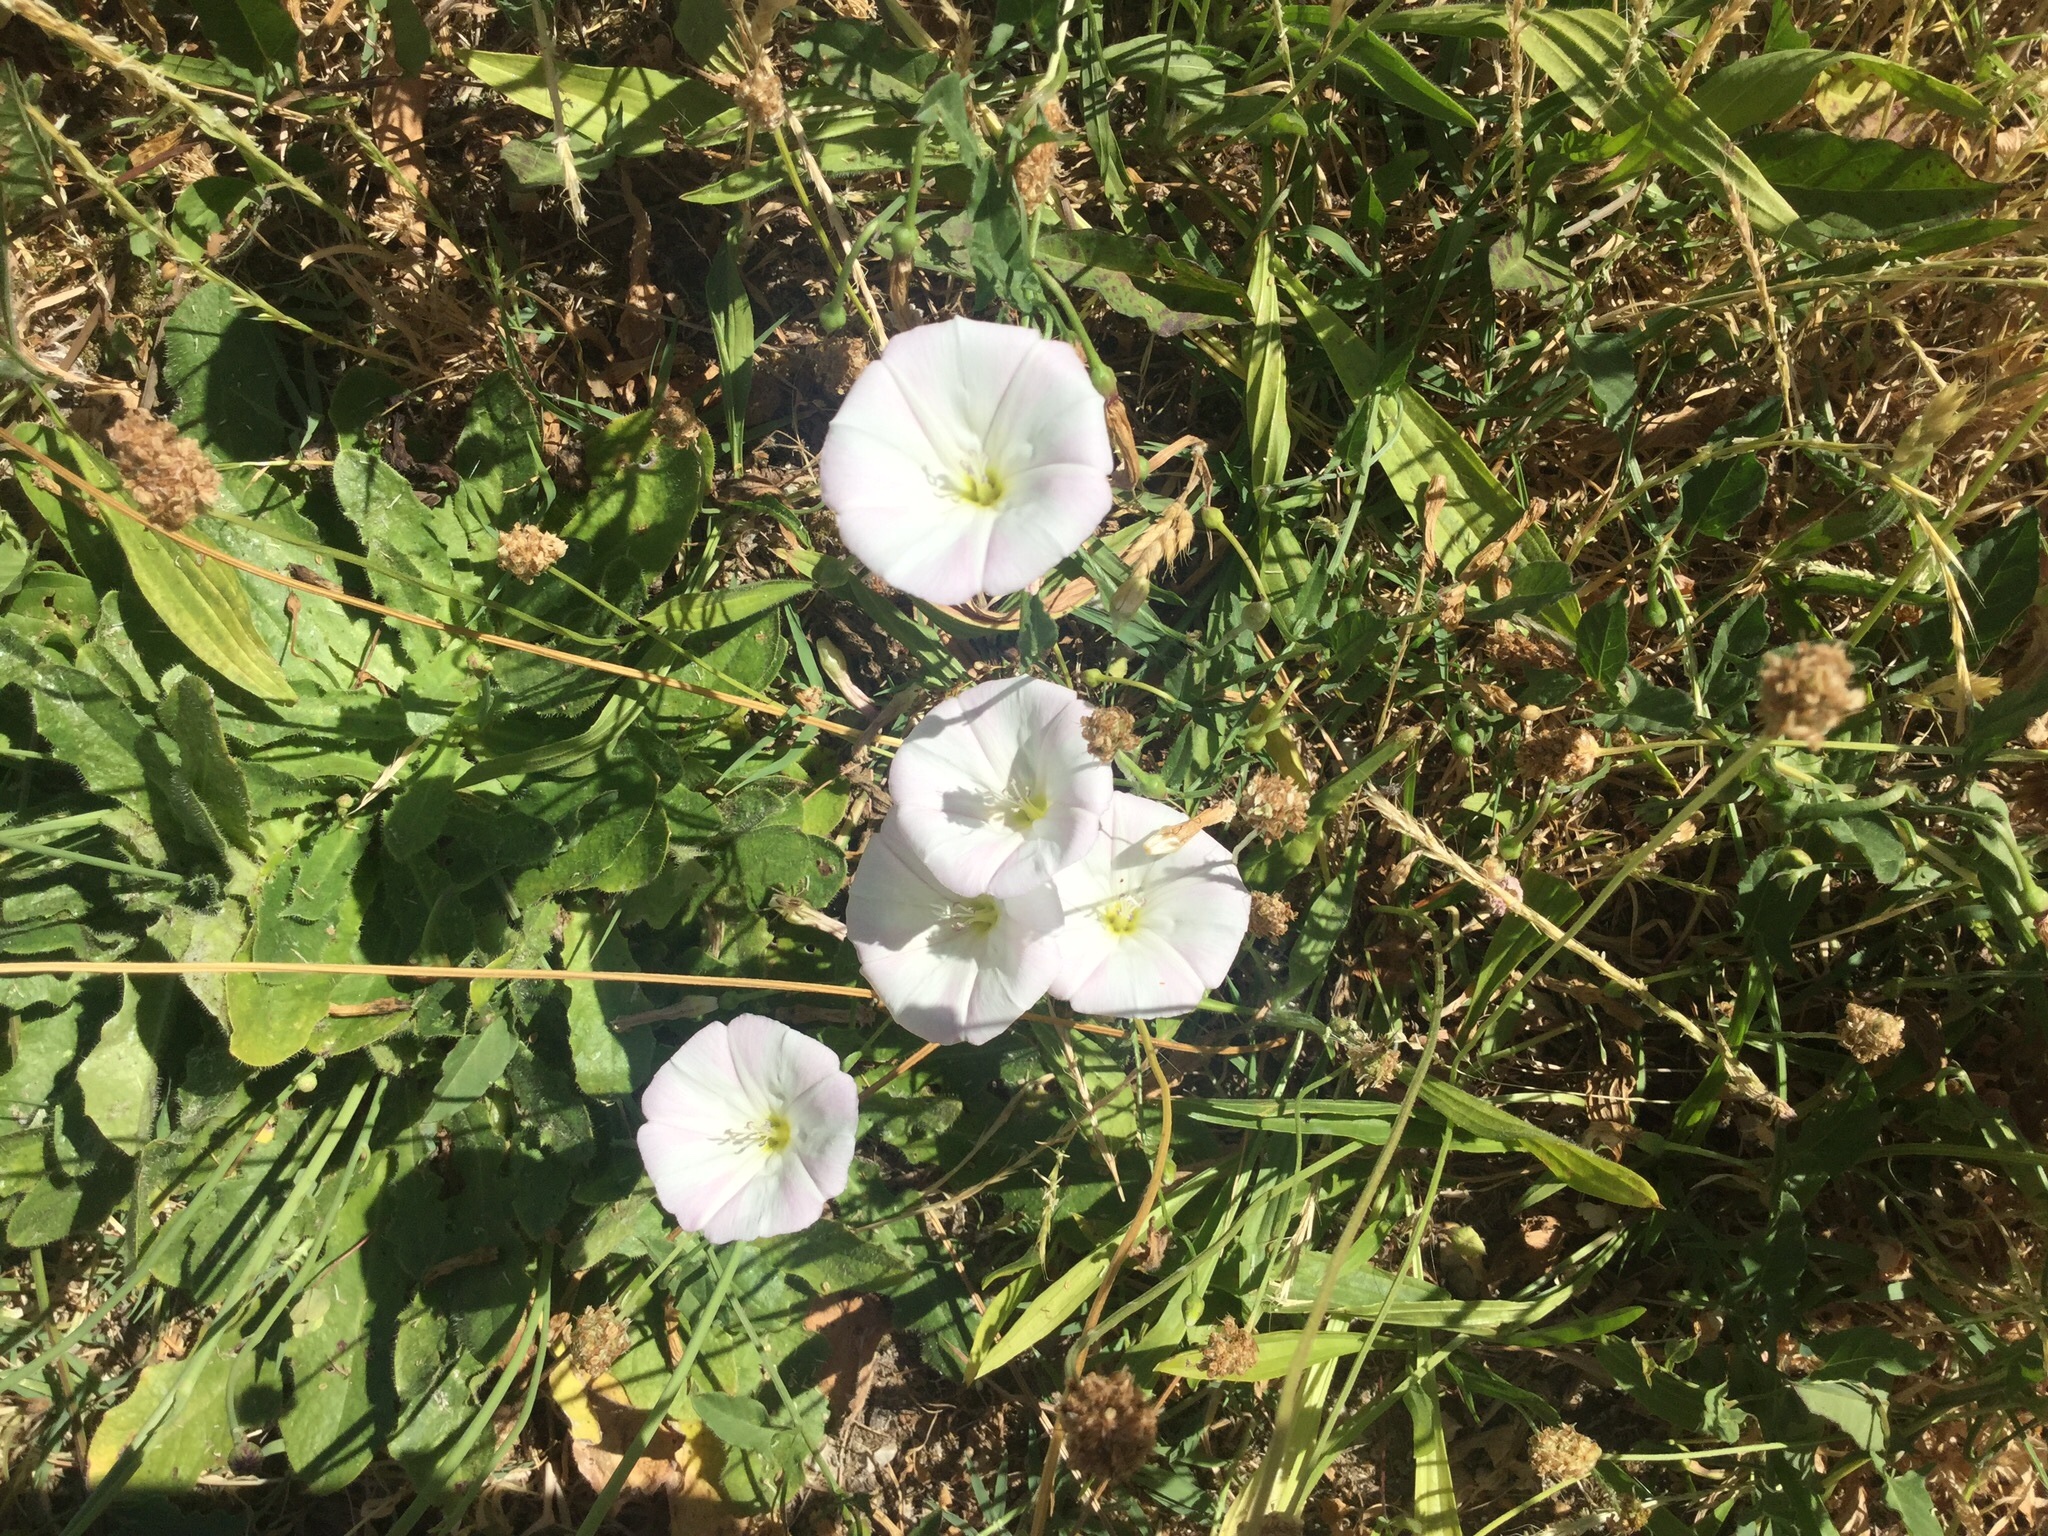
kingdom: Plantae
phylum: Tracheophyta
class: Magnoliopsida
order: Solanales
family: Convolvulaceae
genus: Convolvulus
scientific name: Convolvulus arvensis
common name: Field bindweed
